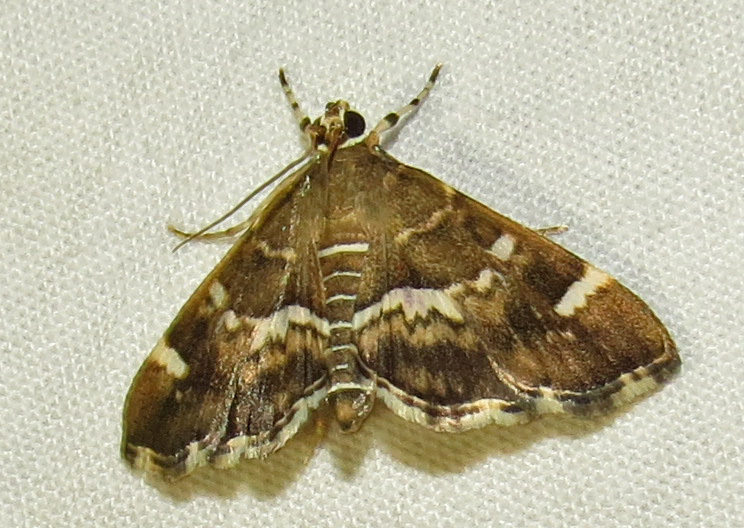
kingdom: Animalia
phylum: Arthropoda
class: Insecta
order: Lepidoptera
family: Crambidae
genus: Hymenia
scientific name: Hymenia perspectalis
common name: Spotted beet webworm
